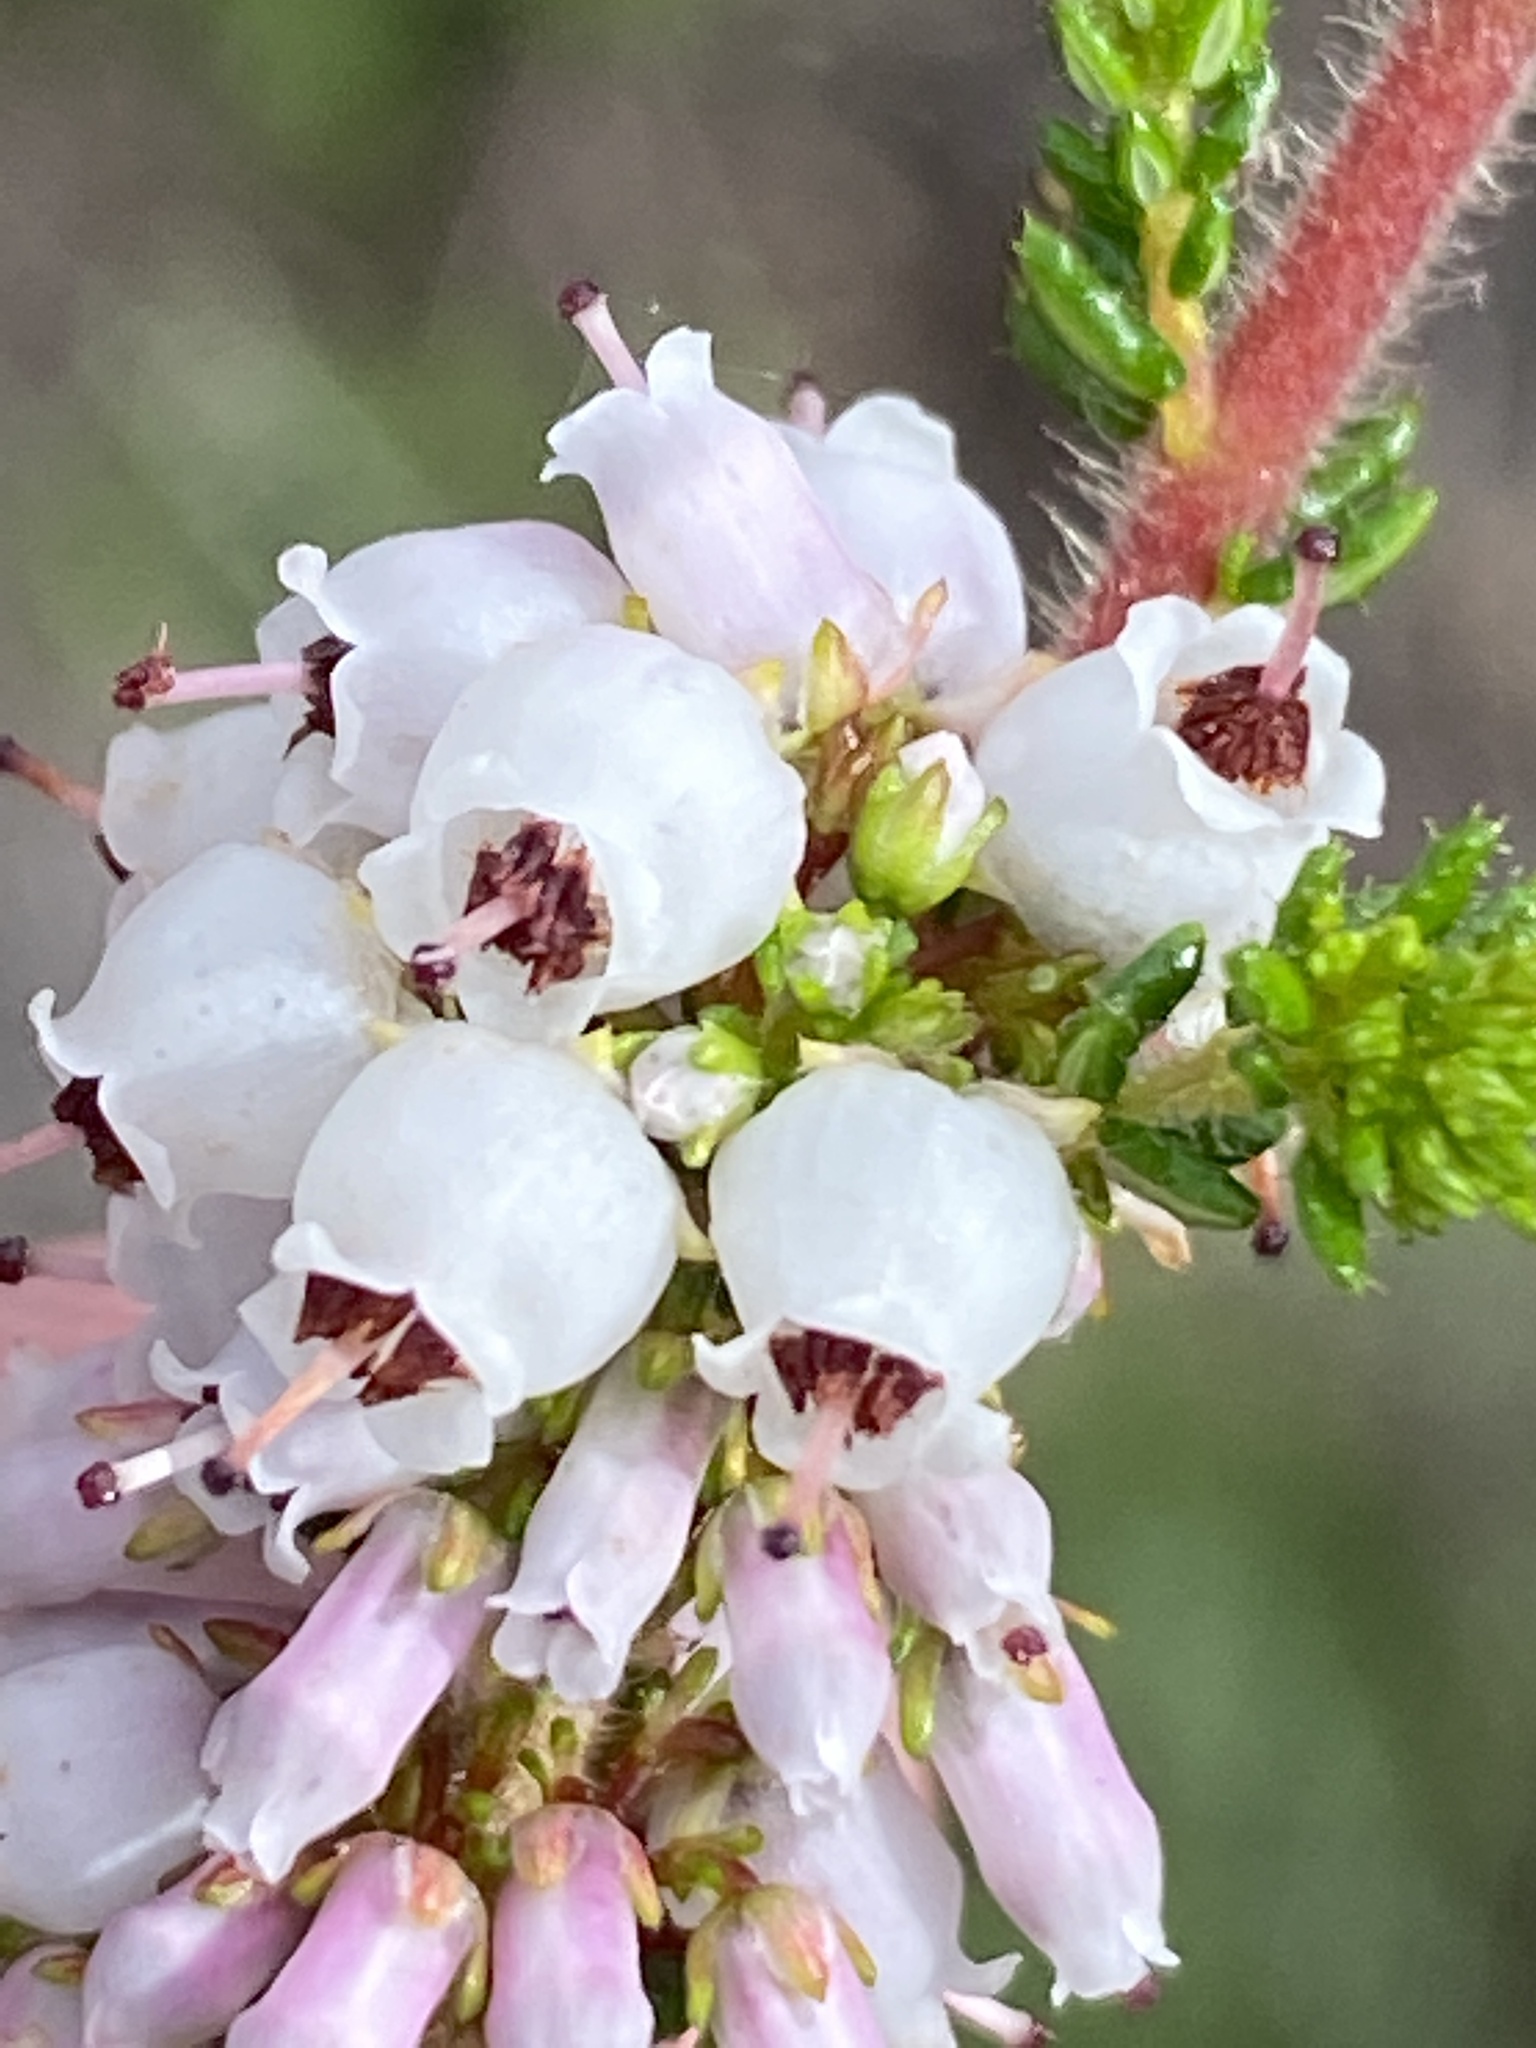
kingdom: Plantae
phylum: Tracheophyta
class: Magnoliopsida
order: Ericales
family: Ericaceae
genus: Erica
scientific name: Erica scabriuscula
